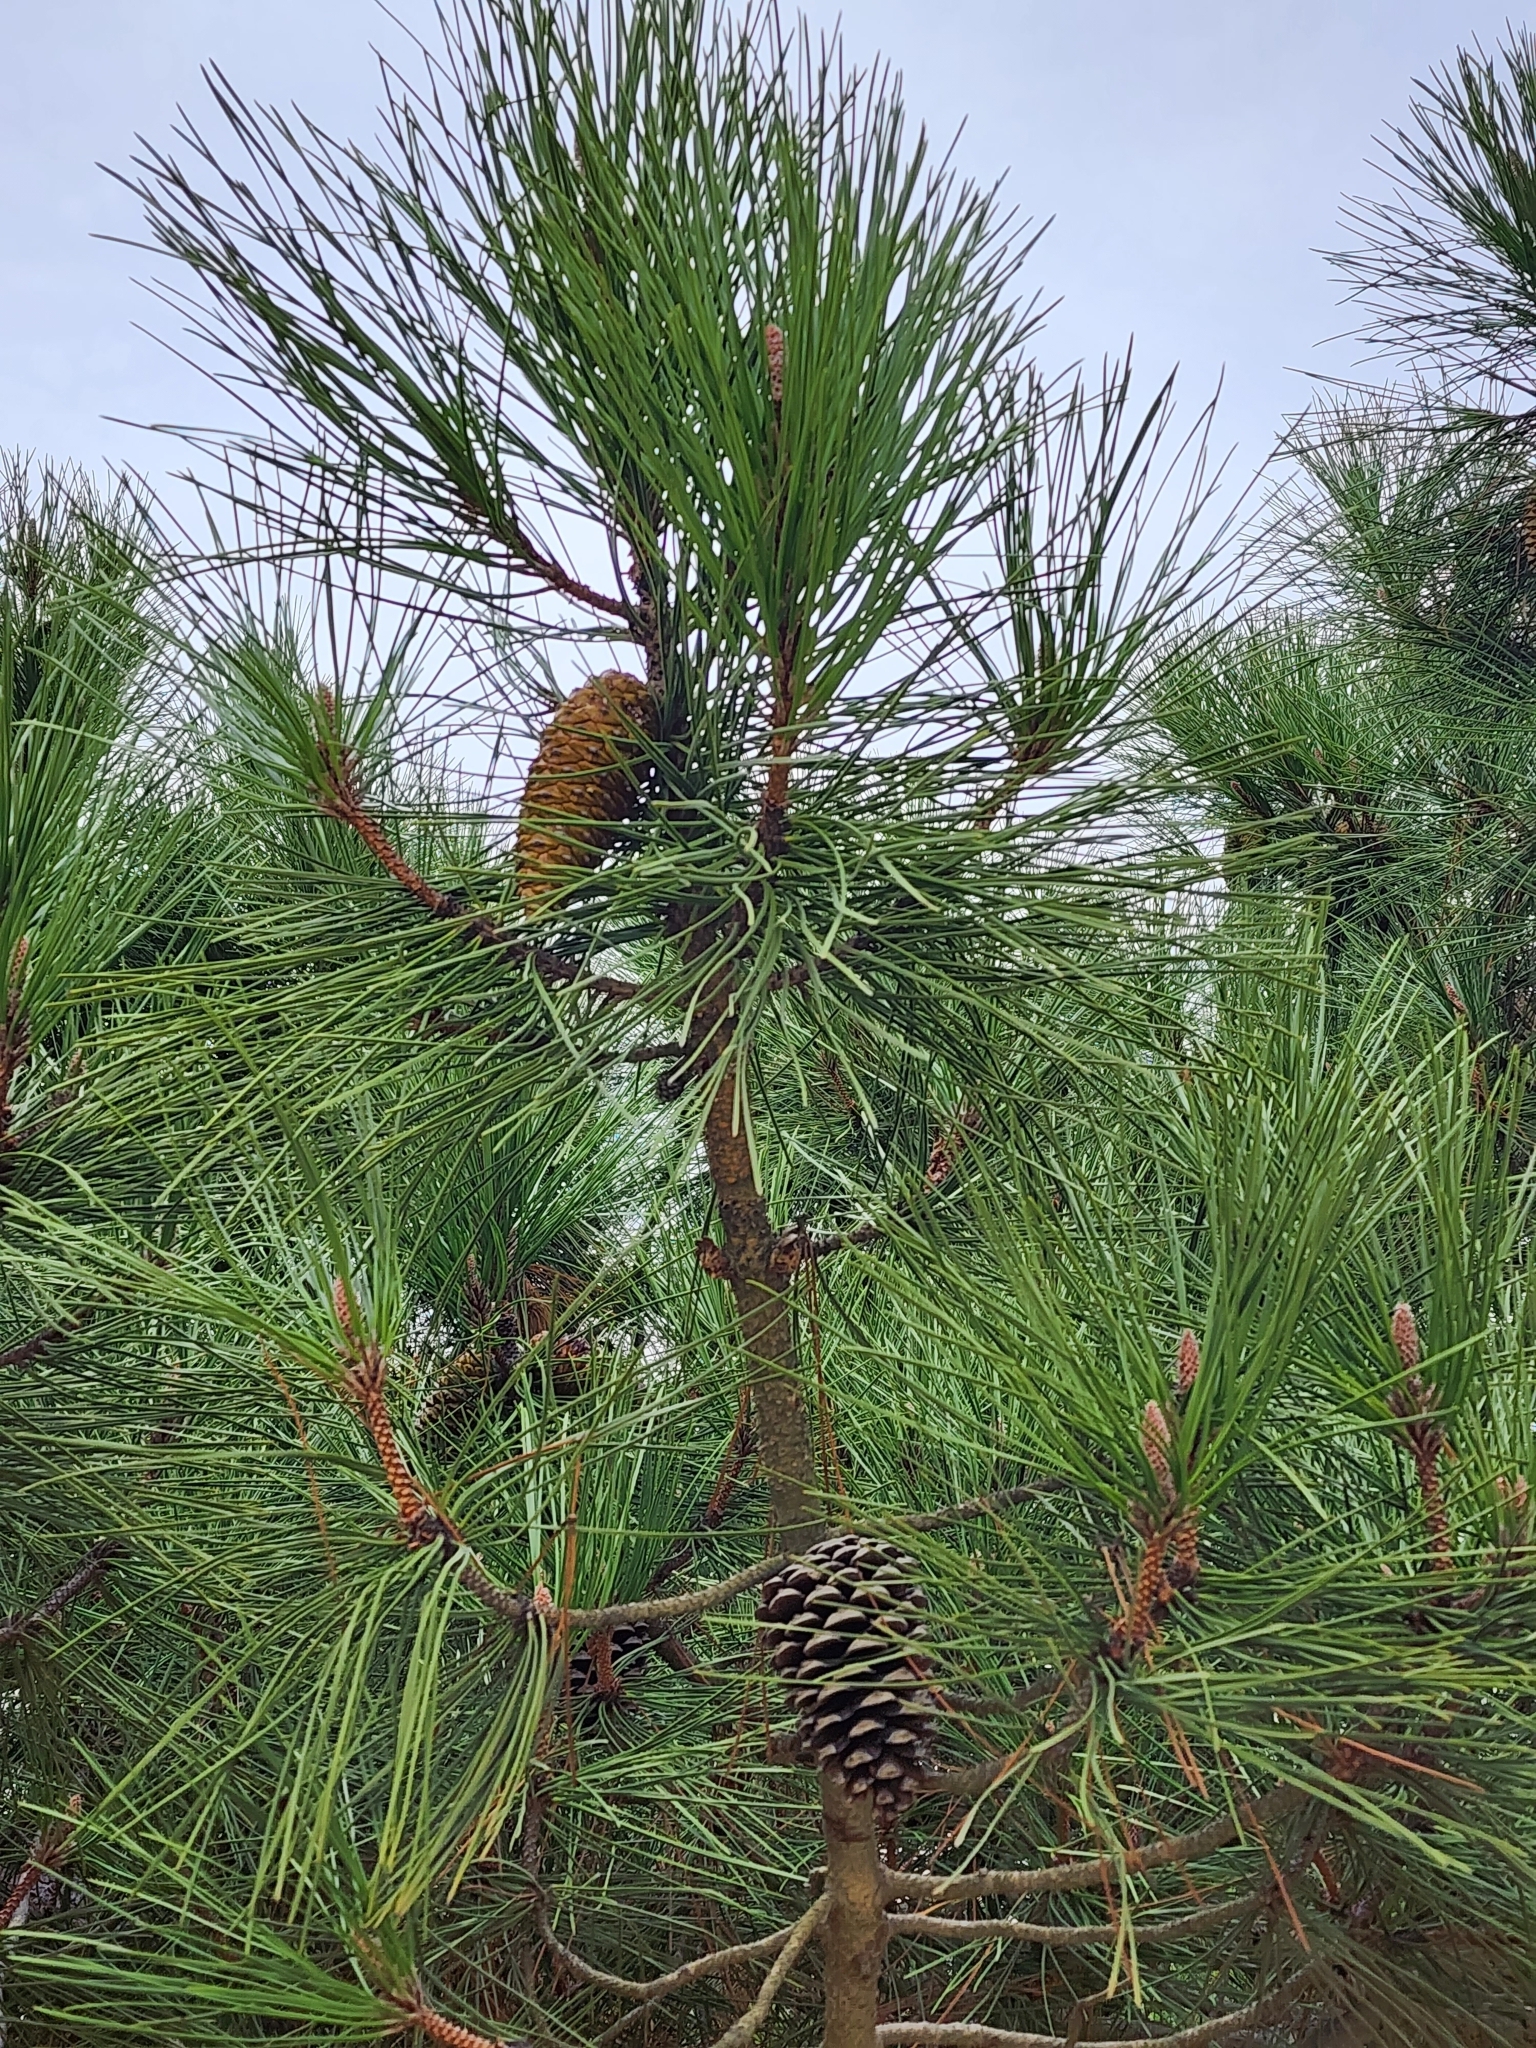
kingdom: Plantae
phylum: Tracheophyta
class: Pinopsida
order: Pinales
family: Pinaceae
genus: Pinus
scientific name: Pinus pinaster
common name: Maritime pine
